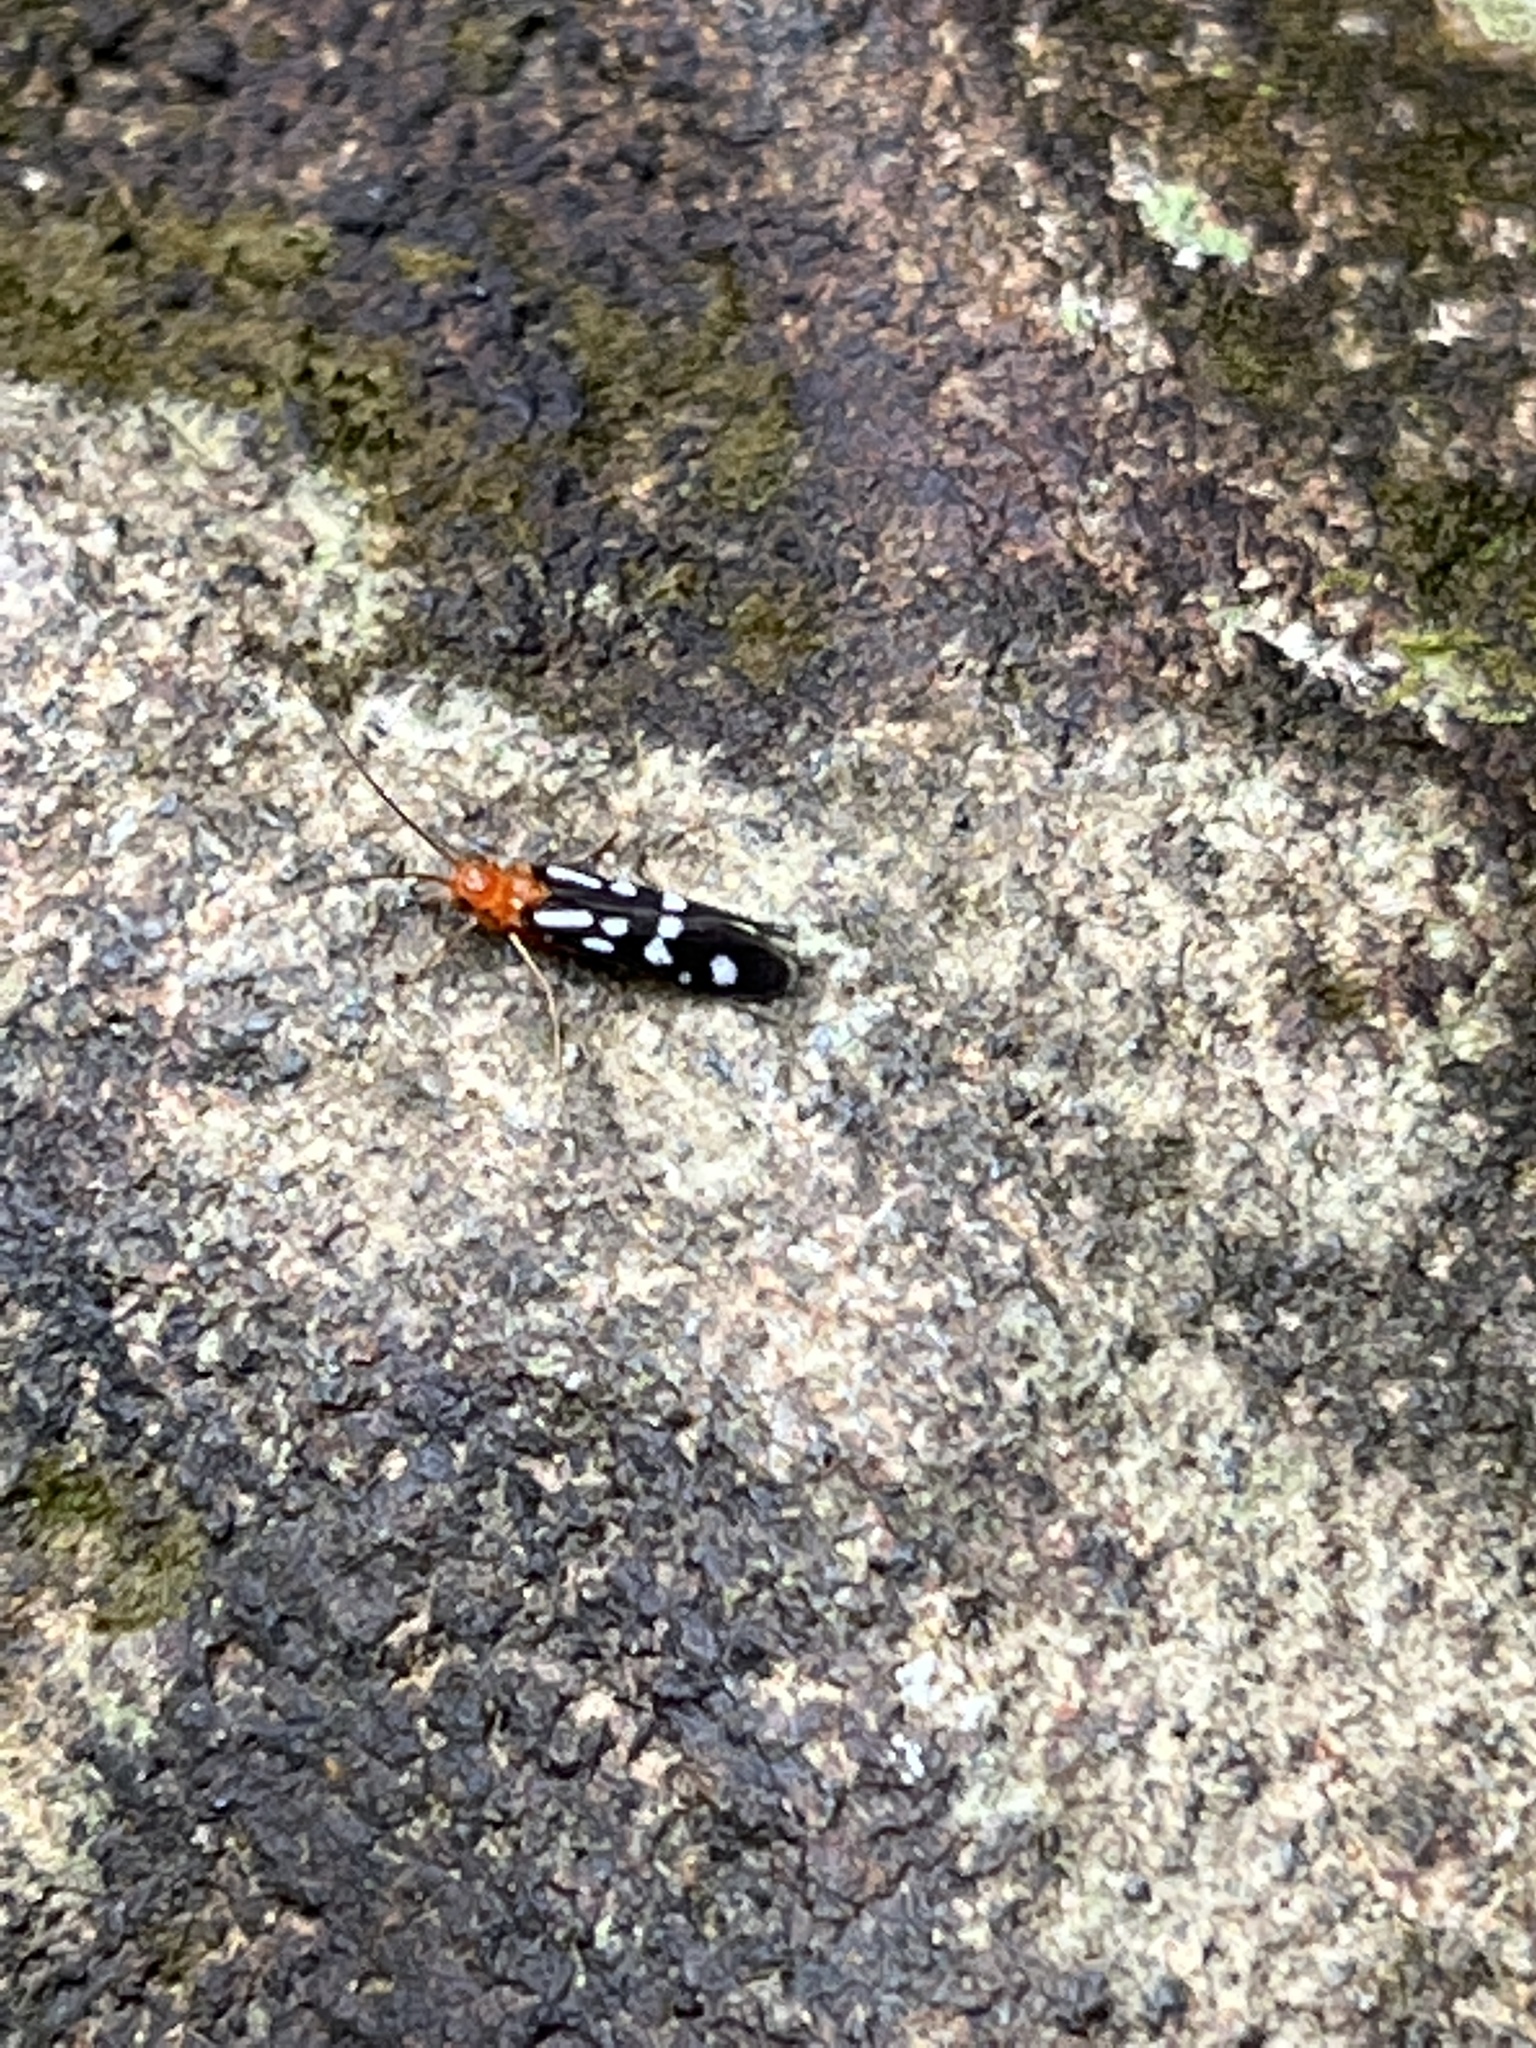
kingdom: Animalia
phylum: Arthropoda
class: Insecta
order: Trichoptera
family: Philopotamidae
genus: Chimarra
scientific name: Chimarra albomaculata
